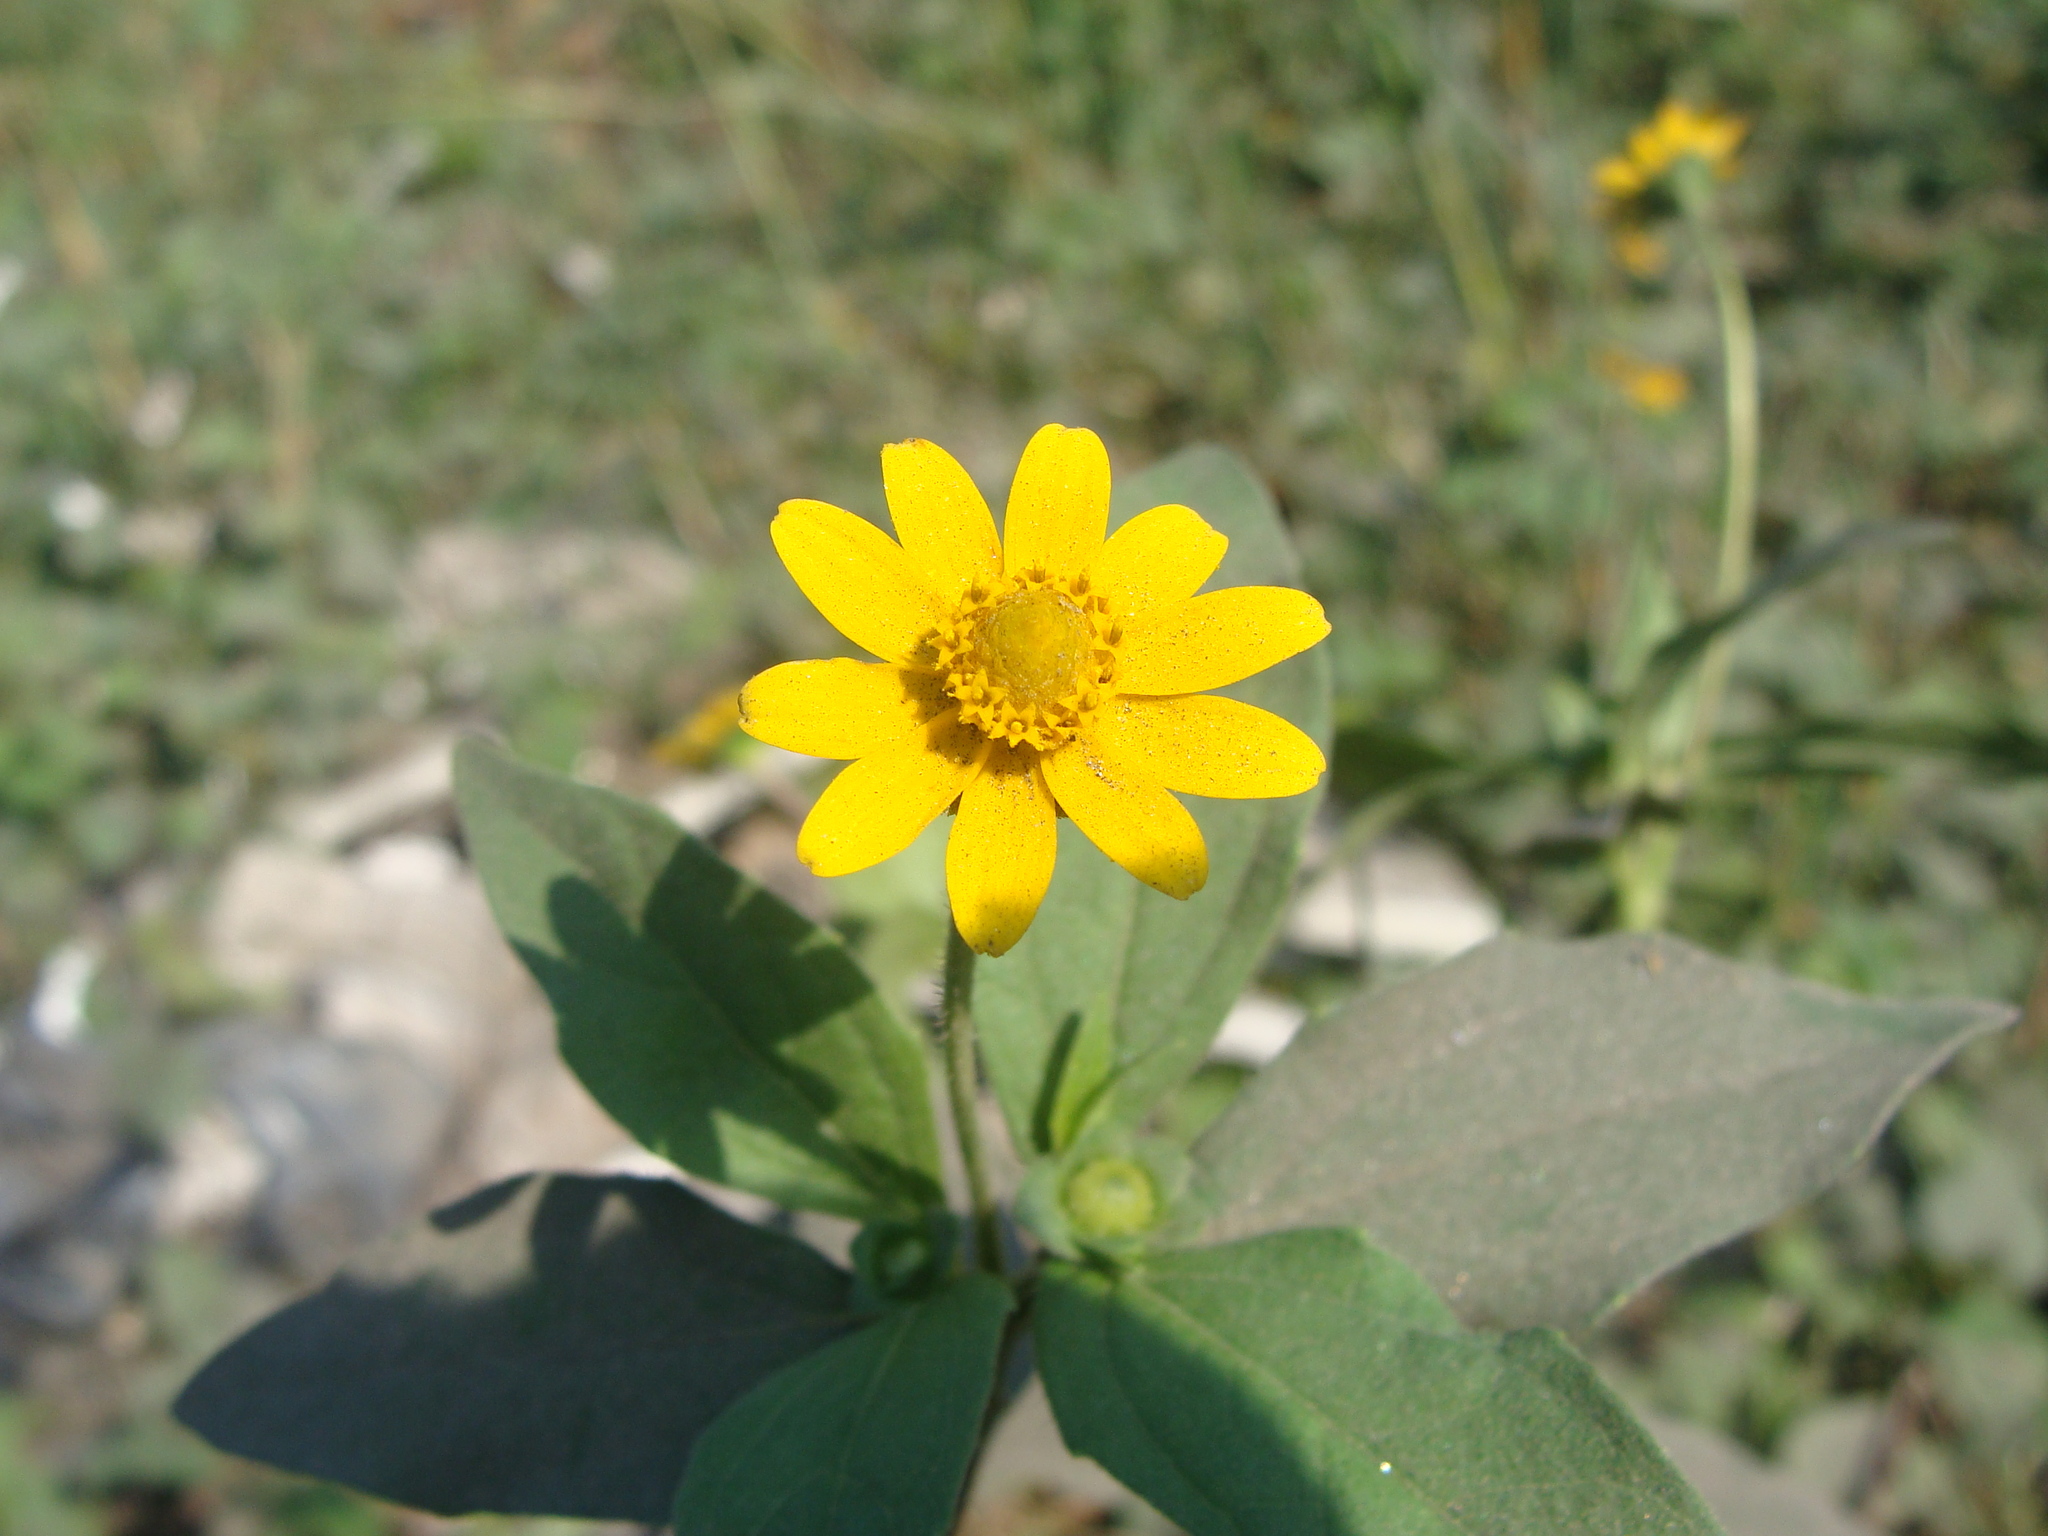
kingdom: Plantae
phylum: Tracheophyta
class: Magnoliopsida
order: Asterales
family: Asteraceae
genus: Melampodium
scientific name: Melampodium divaricatum
